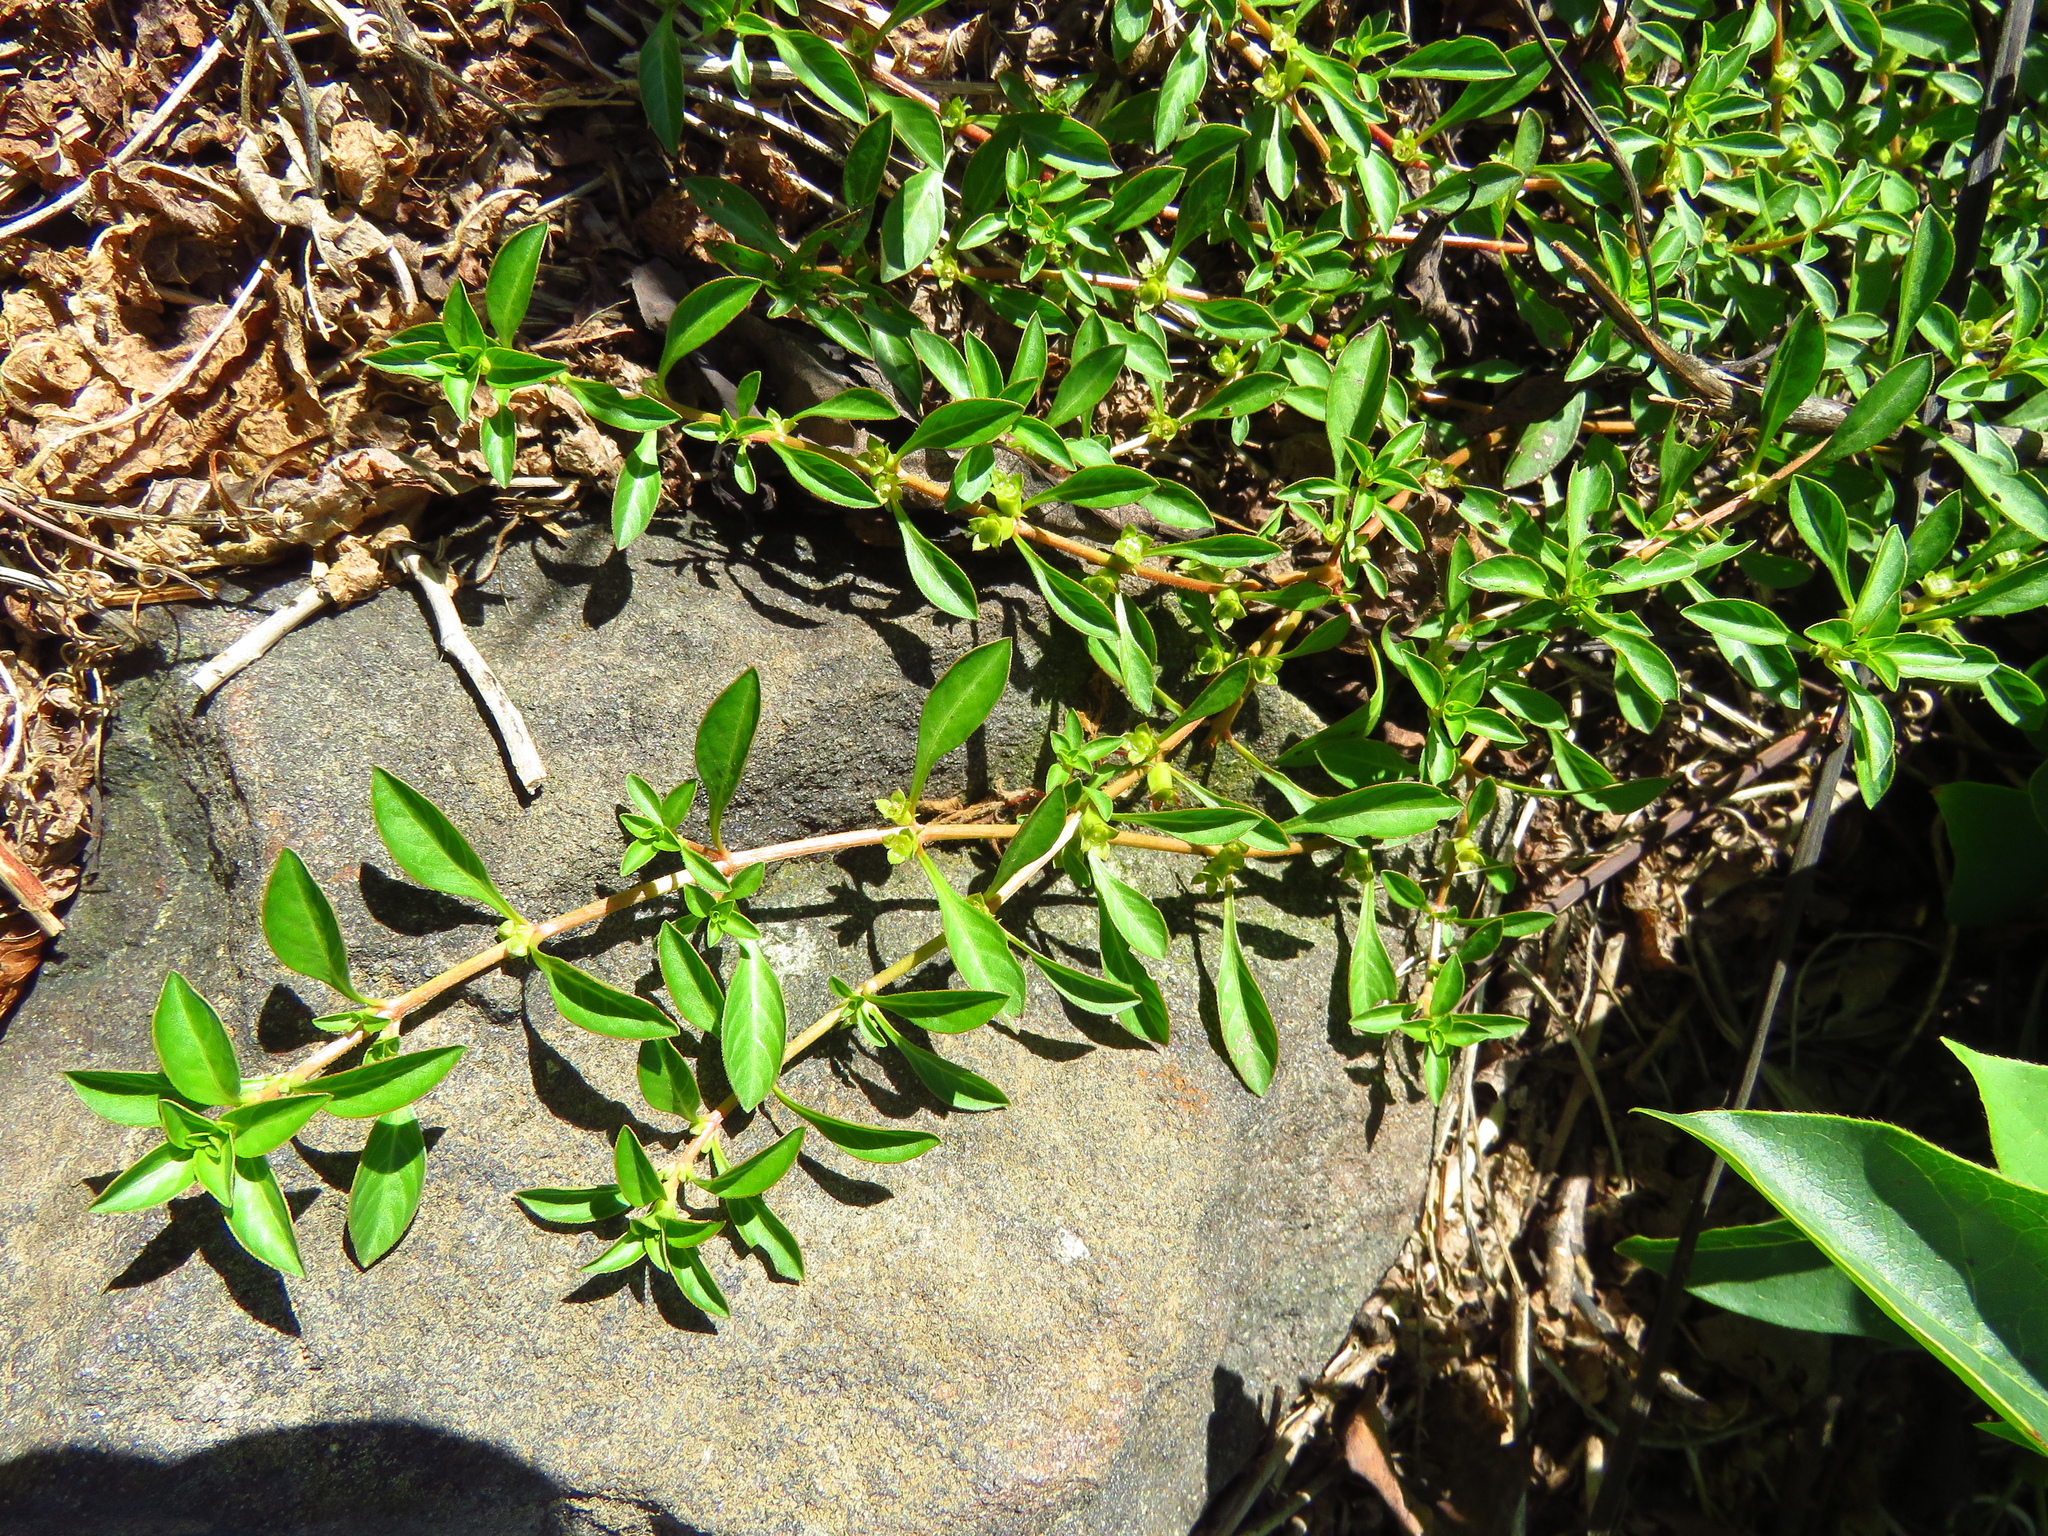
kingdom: Plantae
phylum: Tracheophyta
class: Magnoliopsida
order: Myrtales
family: Onagraceae
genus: Ludwigia
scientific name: Ludwigia palustris
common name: Hampshire-purslane
